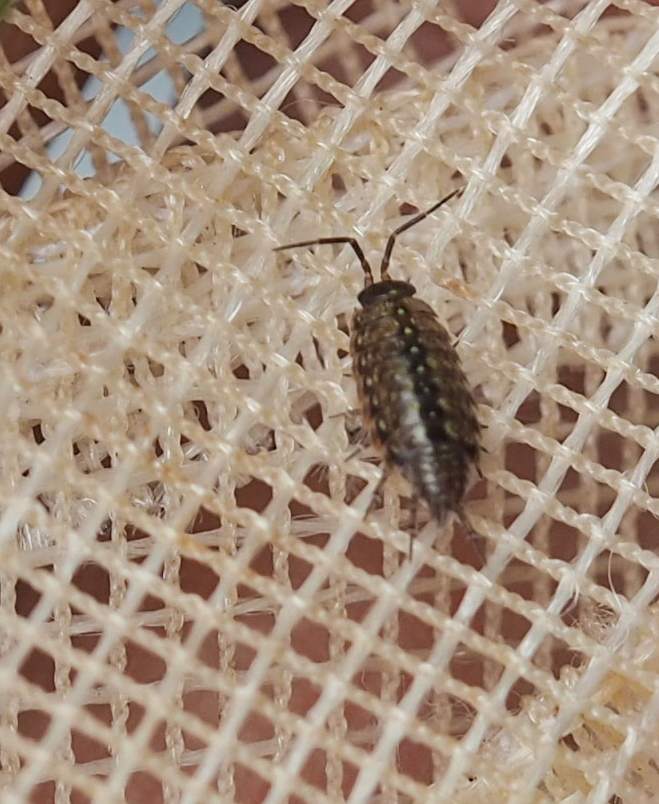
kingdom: Animalia
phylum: Arthropoda
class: Malacostraca
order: Isopoda
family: Philosciidae
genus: Philoscia
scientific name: Philoscia muscorum
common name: Common striped woodlouse
